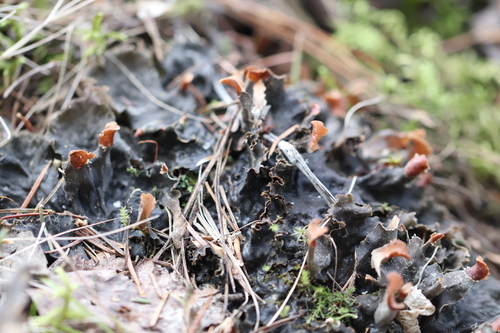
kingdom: Fungi
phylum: Ascomycota
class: Lecanoromycetes
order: Peltigerales
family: Peltigeraceae
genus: Peltigera
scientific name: Peltigera
